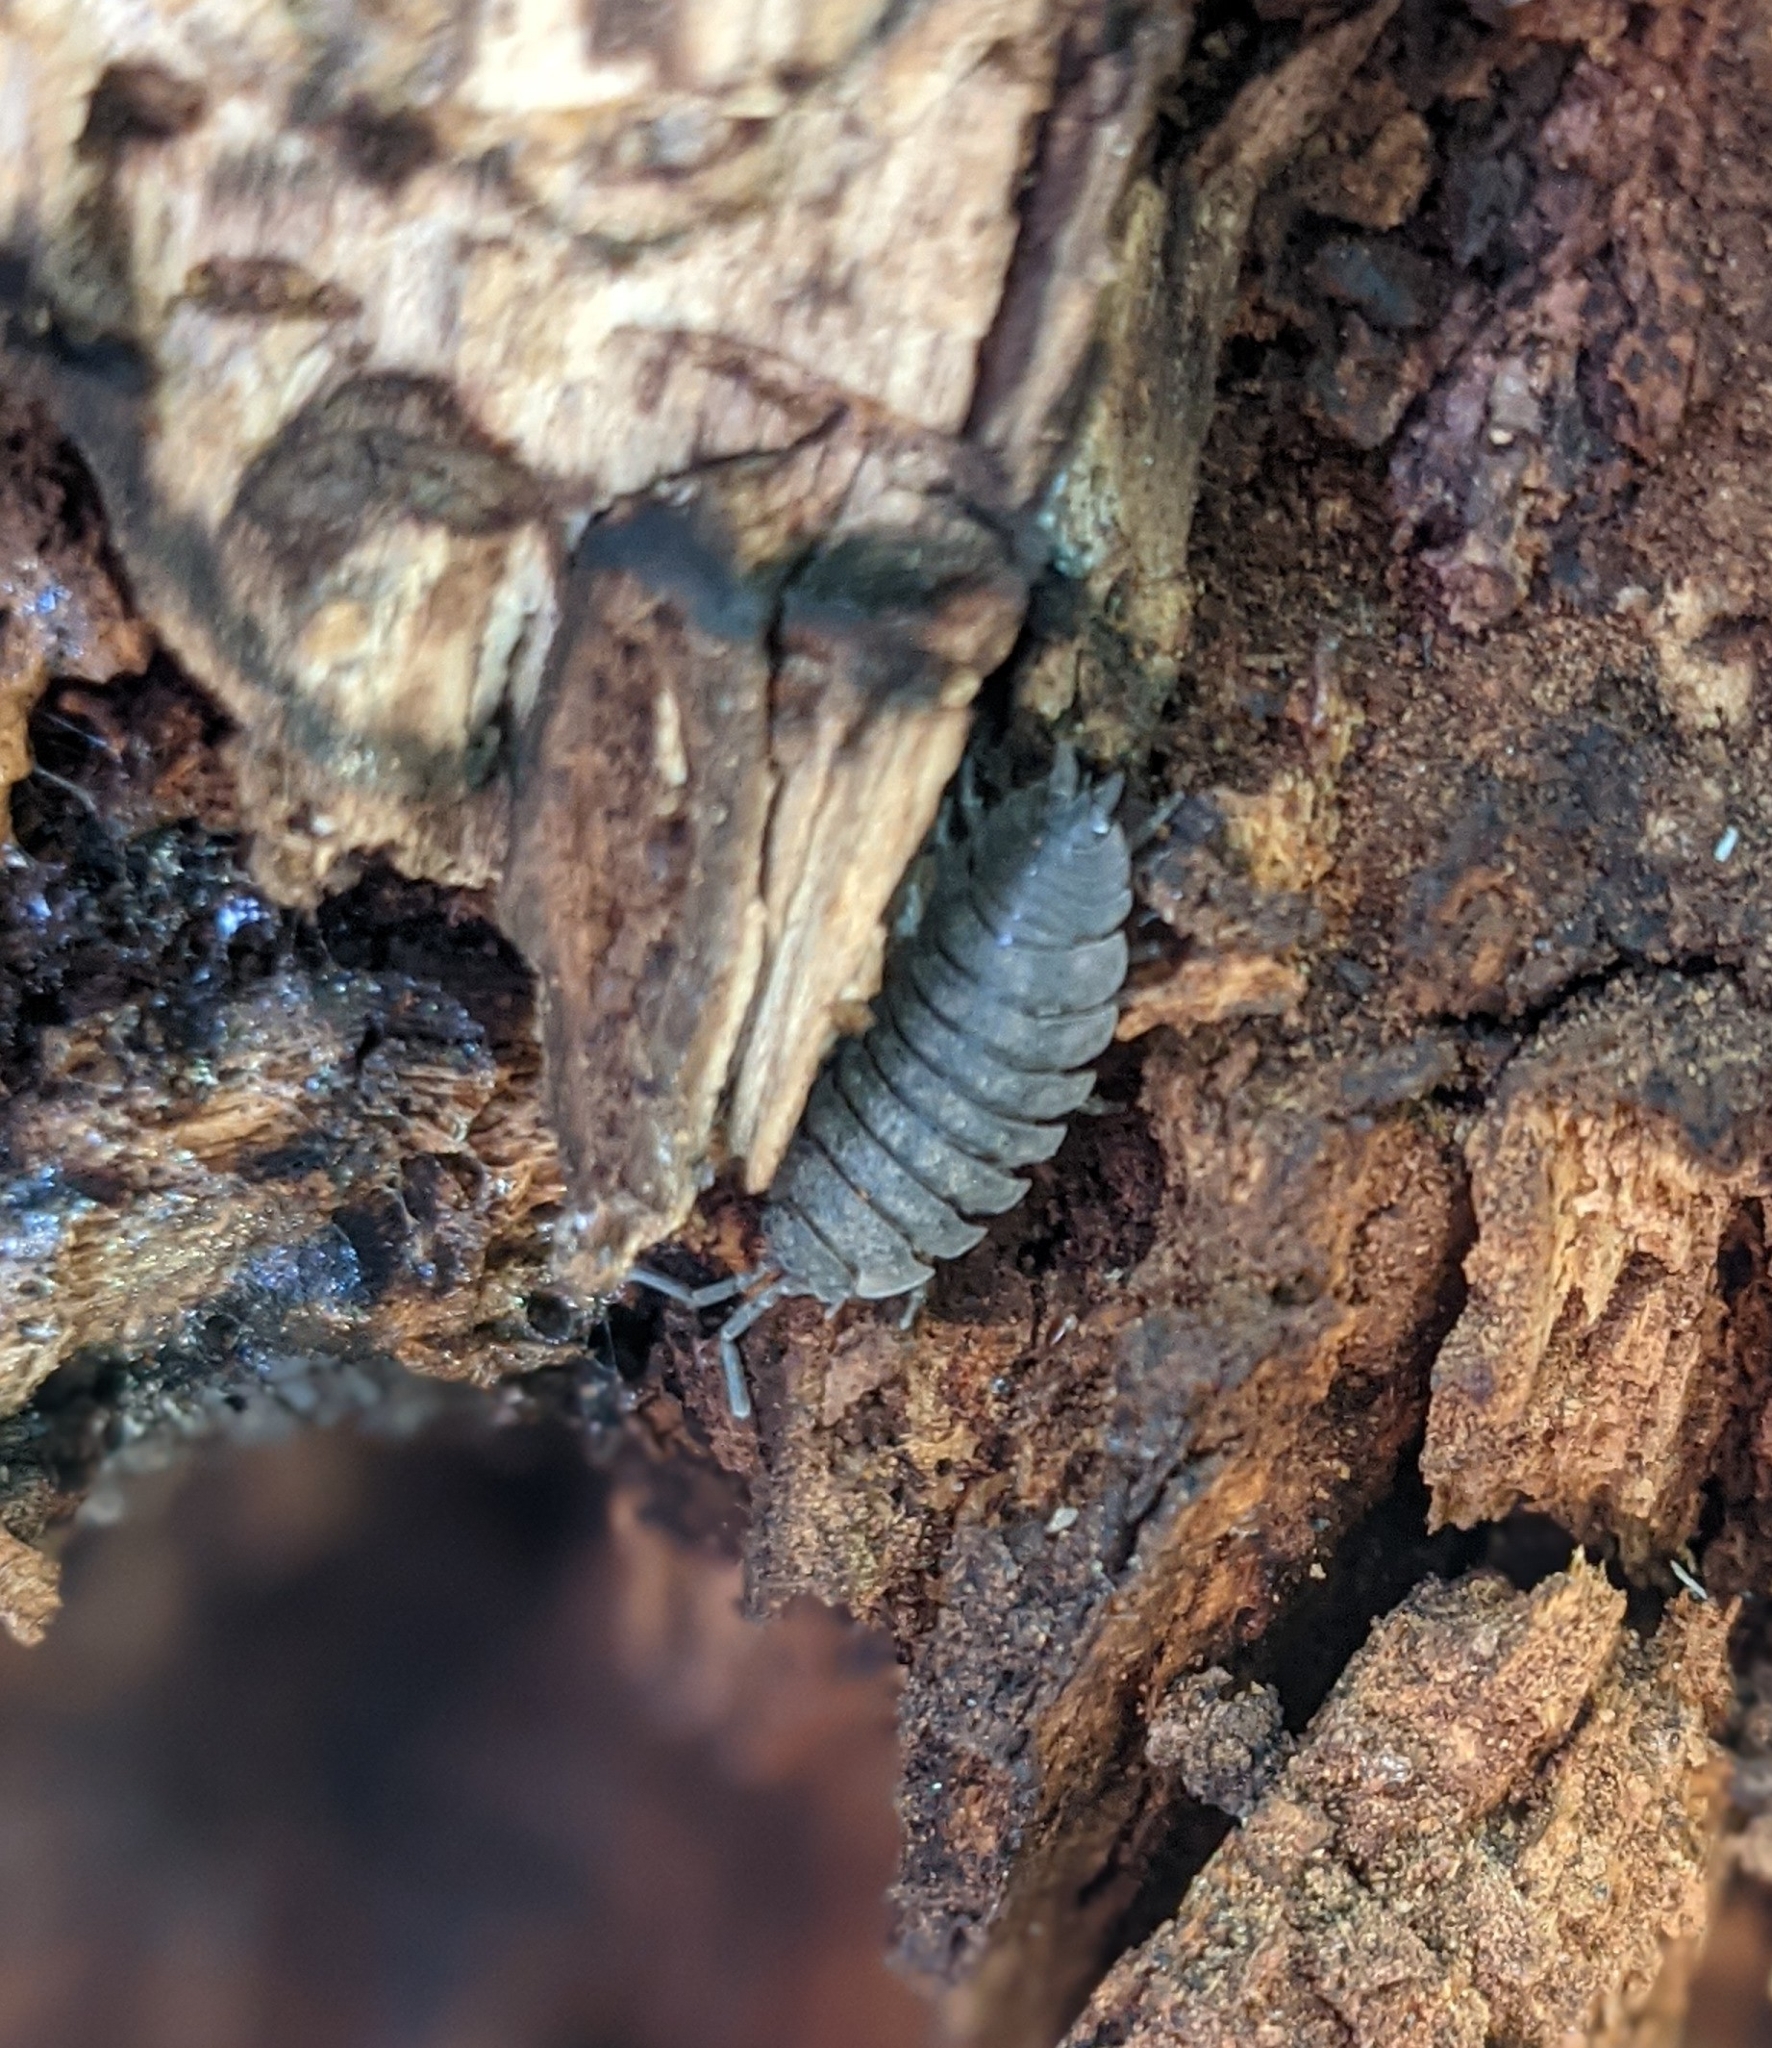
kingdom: Animalia
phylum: Arthropoda
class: Malacostraca
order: Isopoda
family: Porcellionidae
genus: Porcellio
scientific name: Porcellio scaber
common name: Common rough woodlouse
